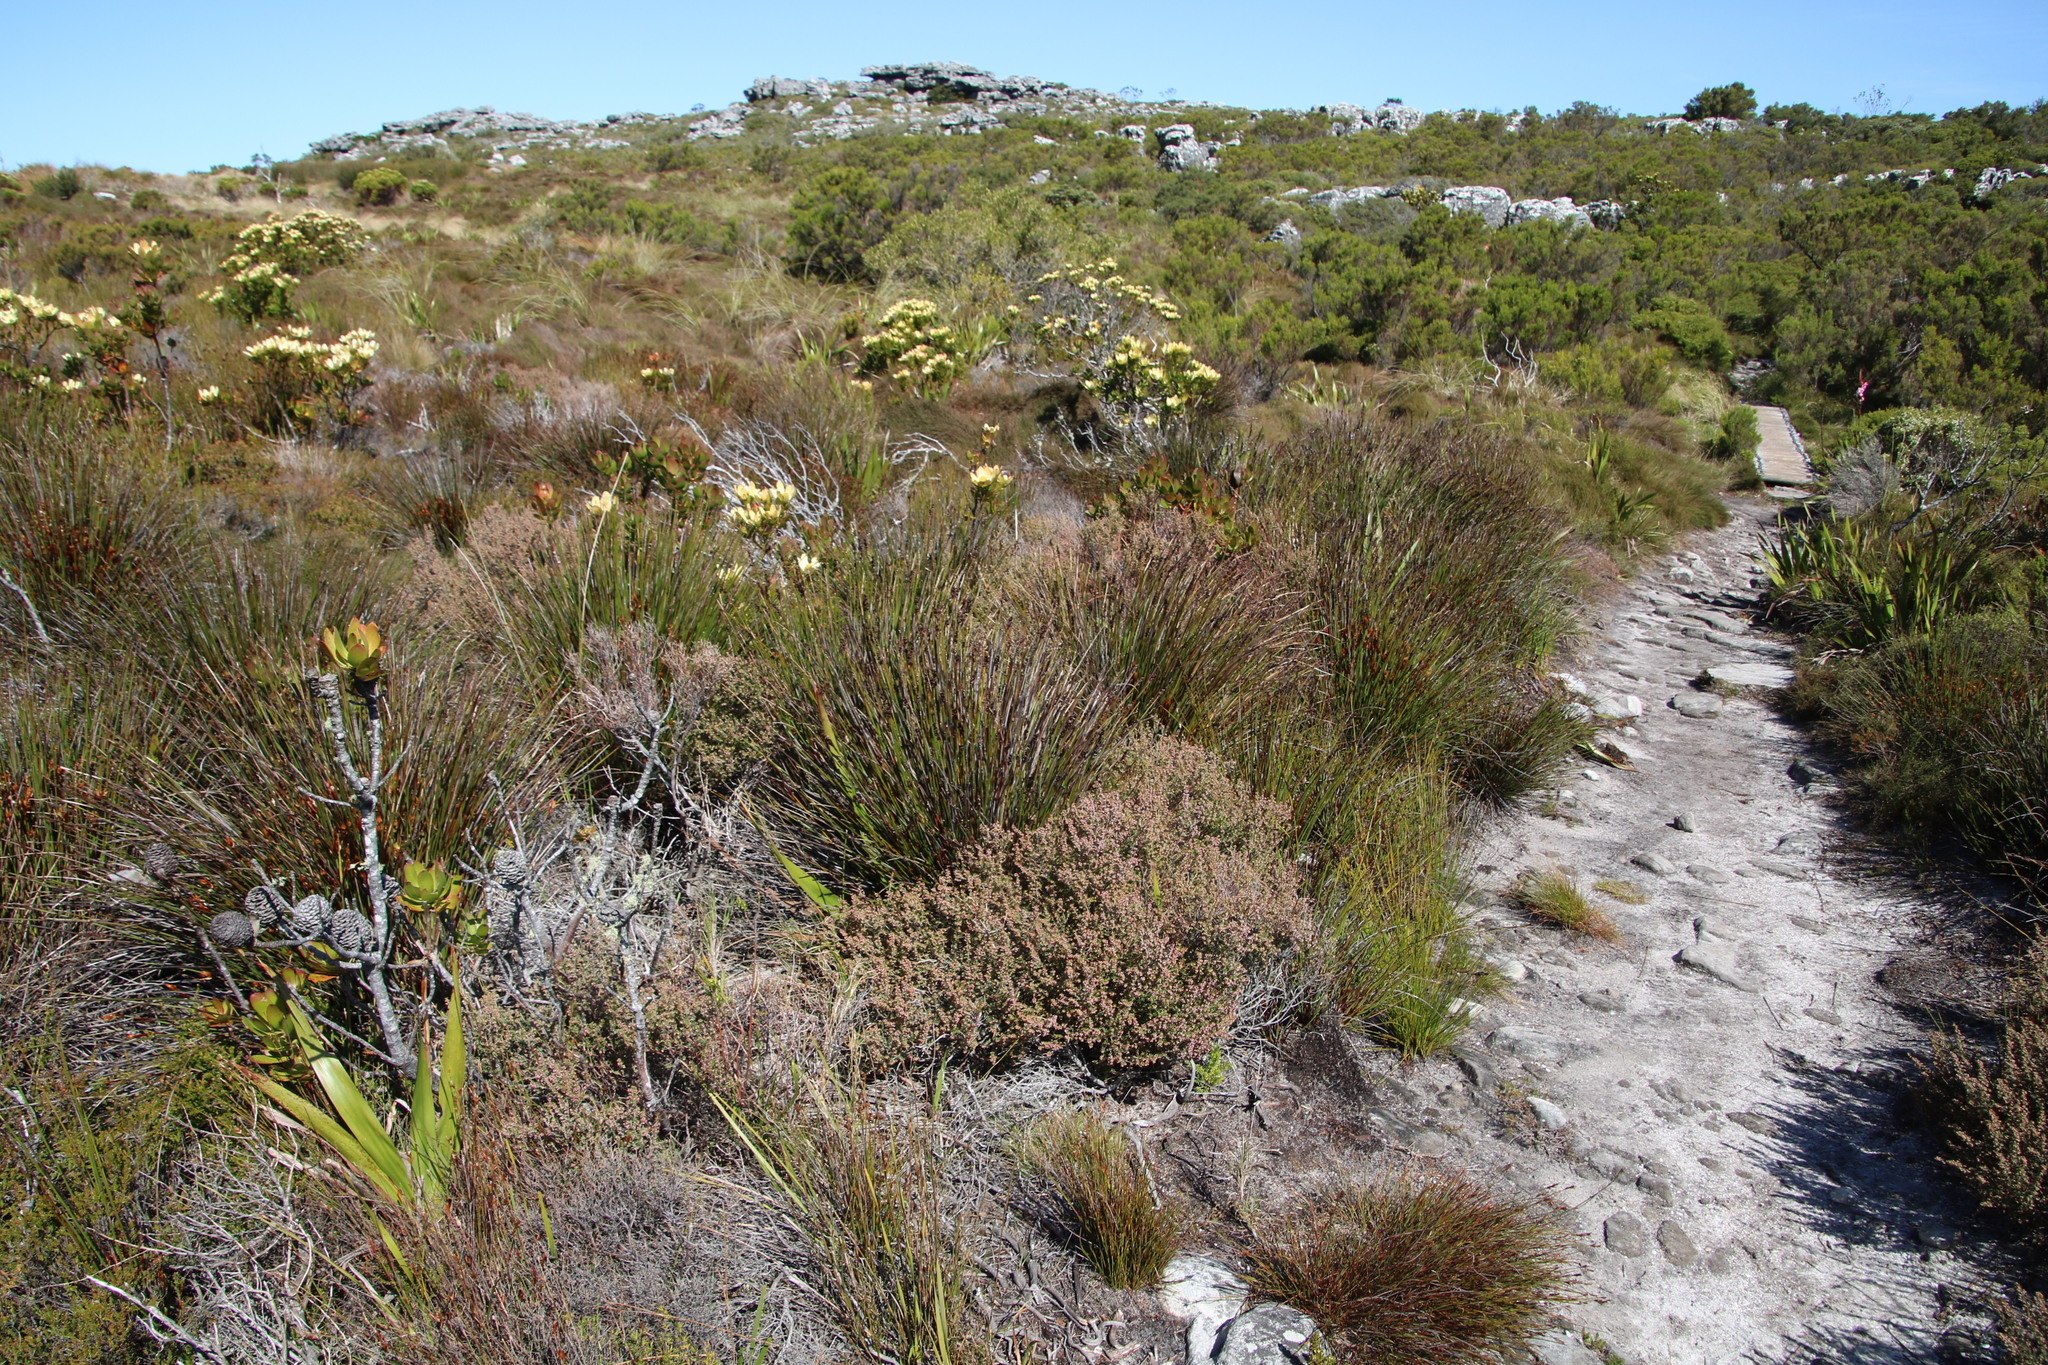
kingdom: Plantae
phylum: Tracheophyta
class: Magnoliopsida
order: Ericales
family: Ericaceae
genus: Erica
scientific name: Erica hispidula
